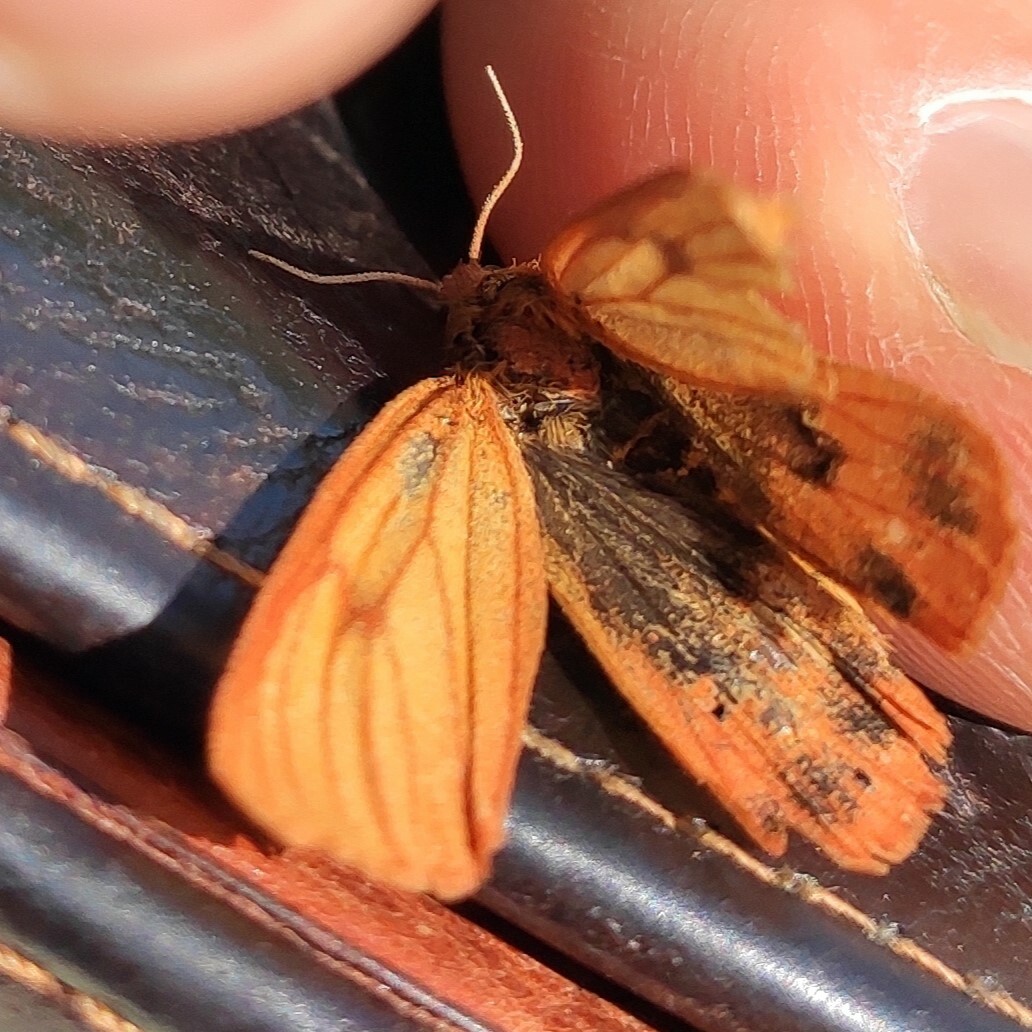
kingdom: Animalia
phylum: Arthropoda
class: Insecta
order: Lepidoptera
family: Erebidae
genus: Diacrisia
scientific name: Diacrisia sannio
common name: Clouded buff
